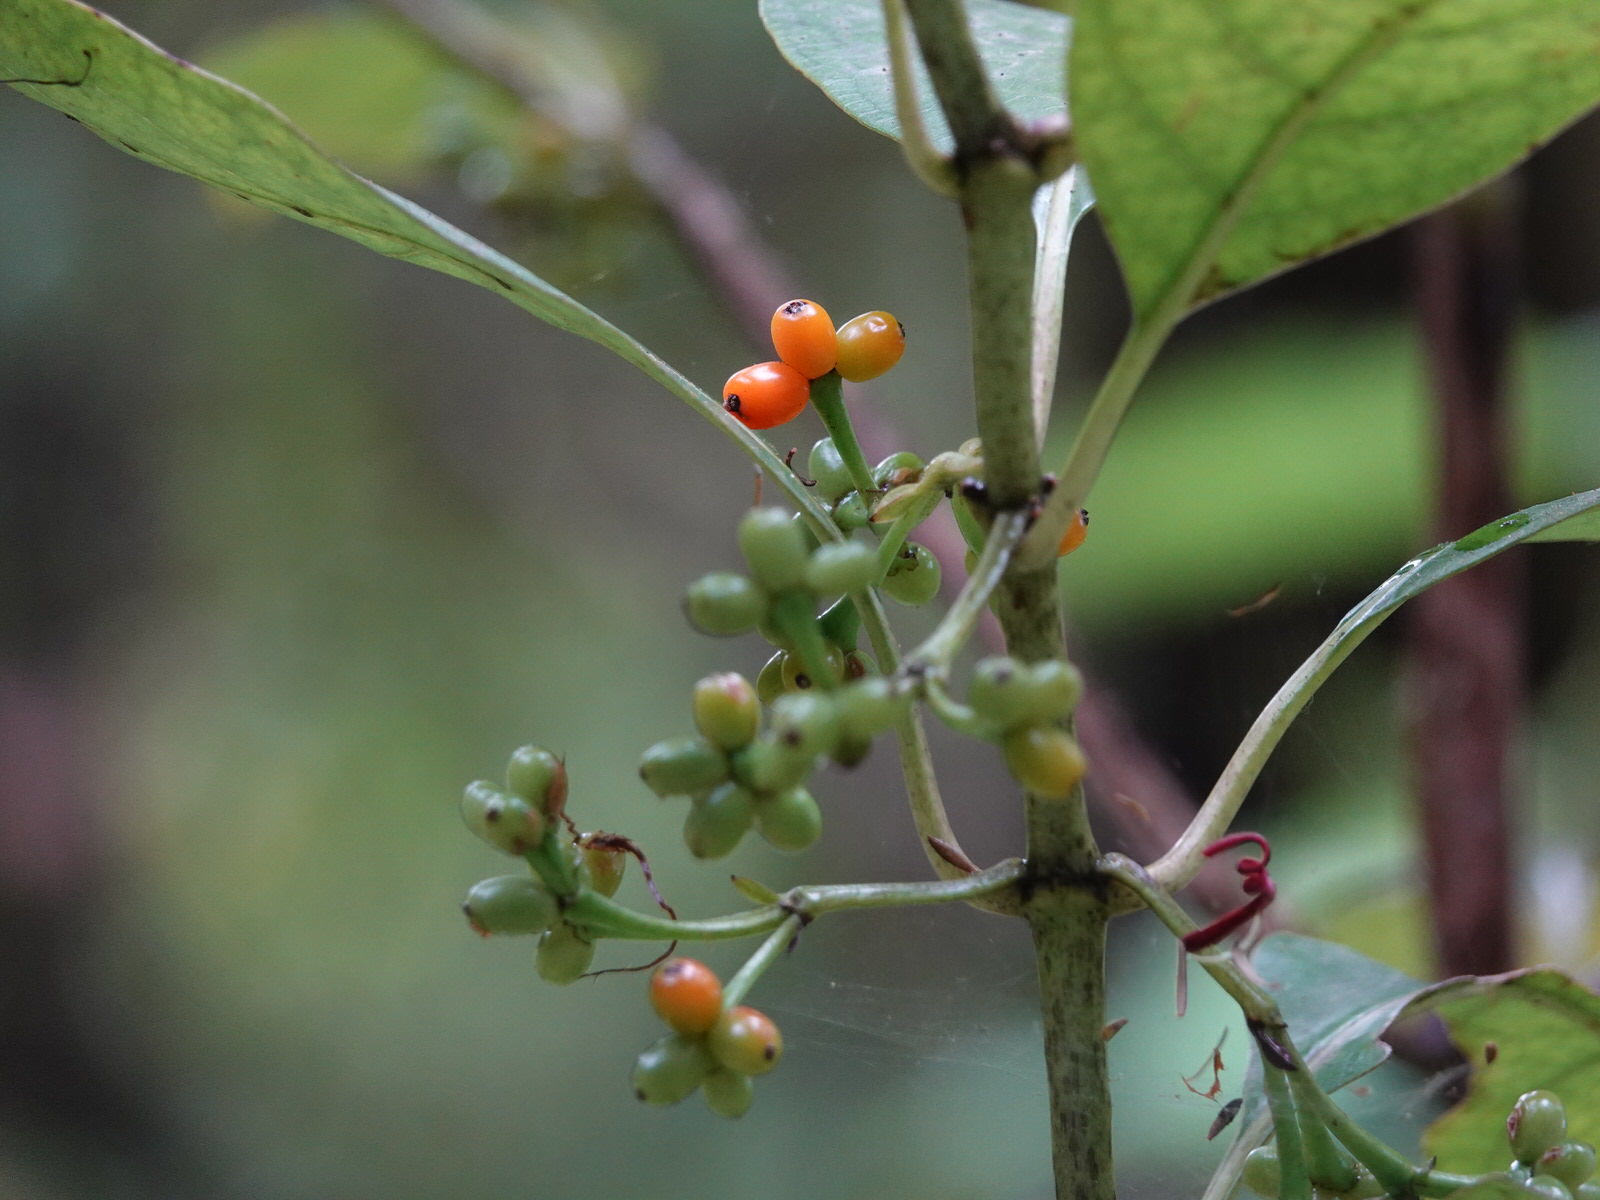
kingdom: Plantae
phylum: Tracheophyta
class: Magnoliopsida
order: Gentianales
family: Rubiaceae
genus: Coprosma
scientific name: Coprosma autumnalis
